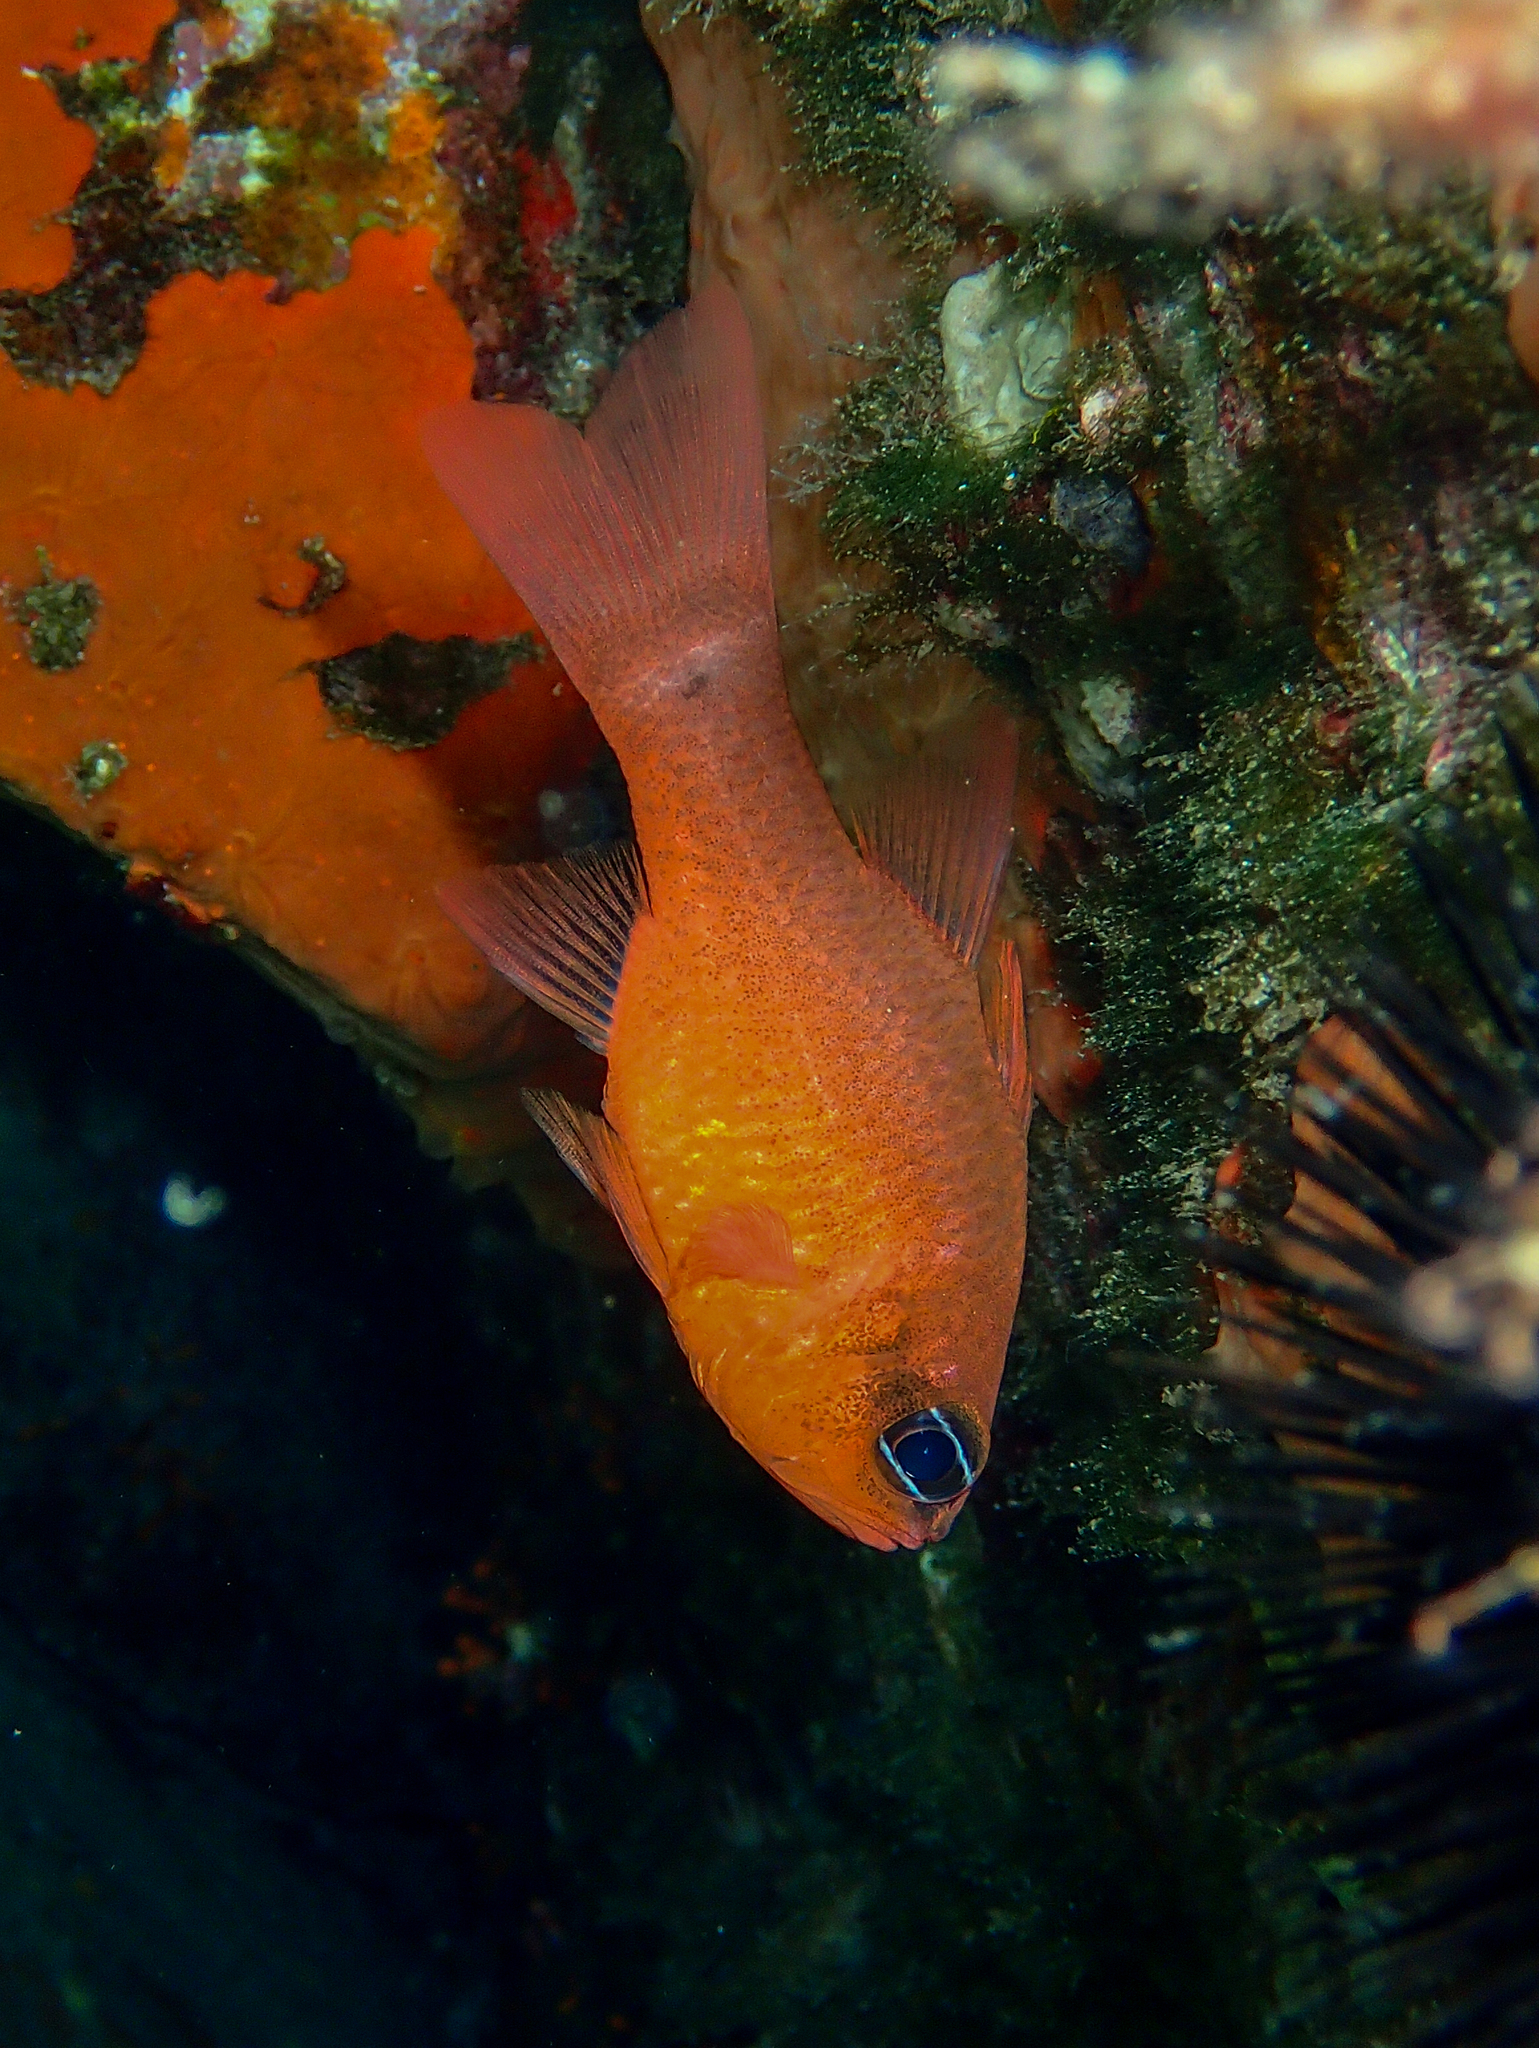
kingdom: Animalia
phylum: Chordata
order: Perciformes
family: Apogonidae
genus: Apogon
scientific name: Apogon imberbis
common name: Cardinal fish
